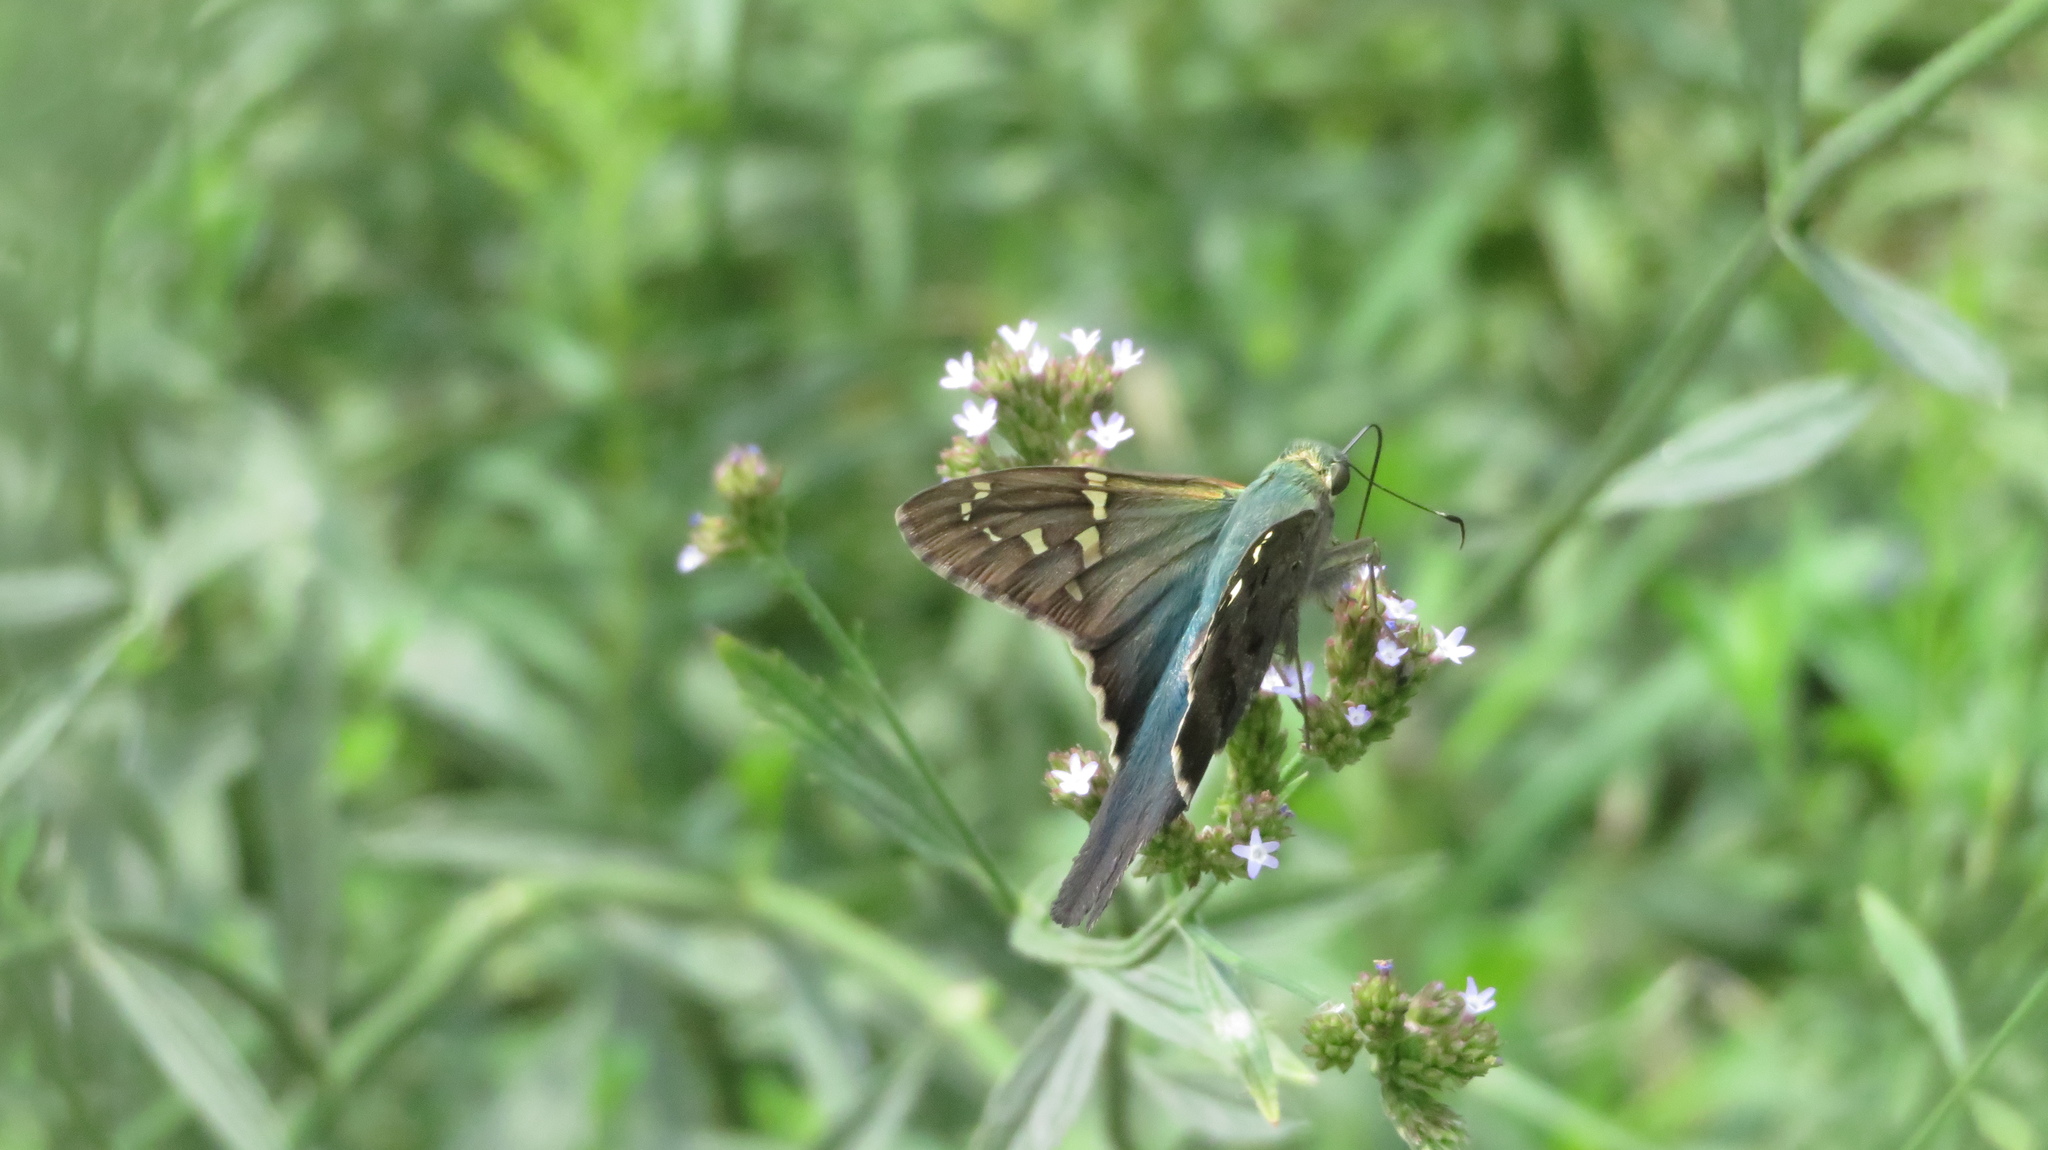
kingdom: Animalia
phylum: Arthropoda
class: Insecta
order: Lepidoptera
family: Hesperiidae
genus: Urbanus
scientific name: Urbanus proteus
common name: Long-tailed skipper
